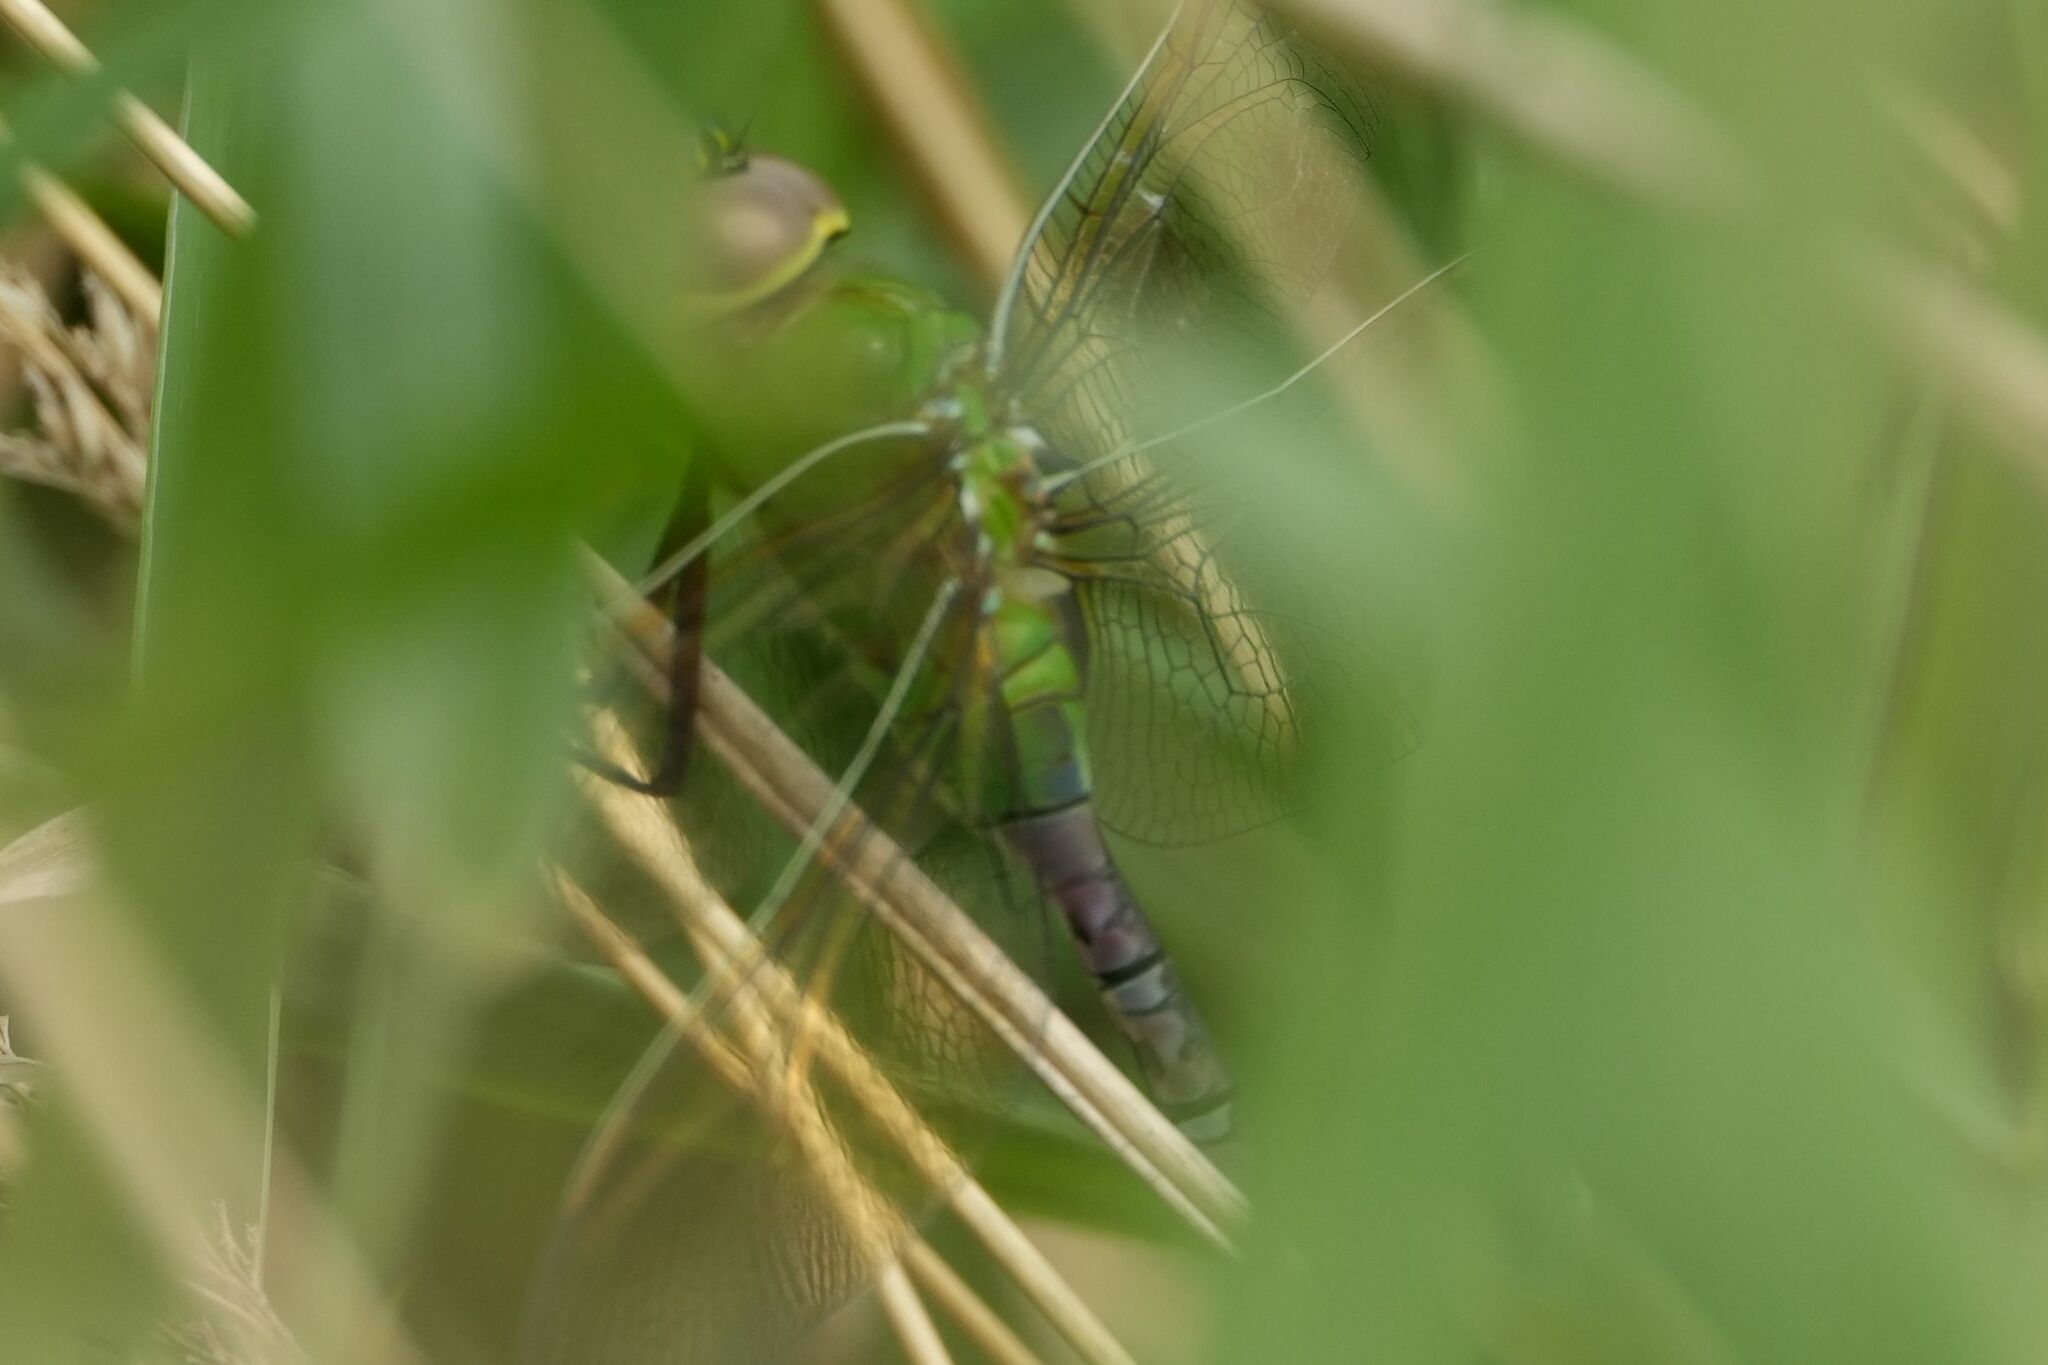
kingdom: Animalia
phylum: Arthropoda
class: Insecta
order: Odonata
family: Aeshnidae
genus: Anax
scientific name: Anax junius
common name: Common green darner
